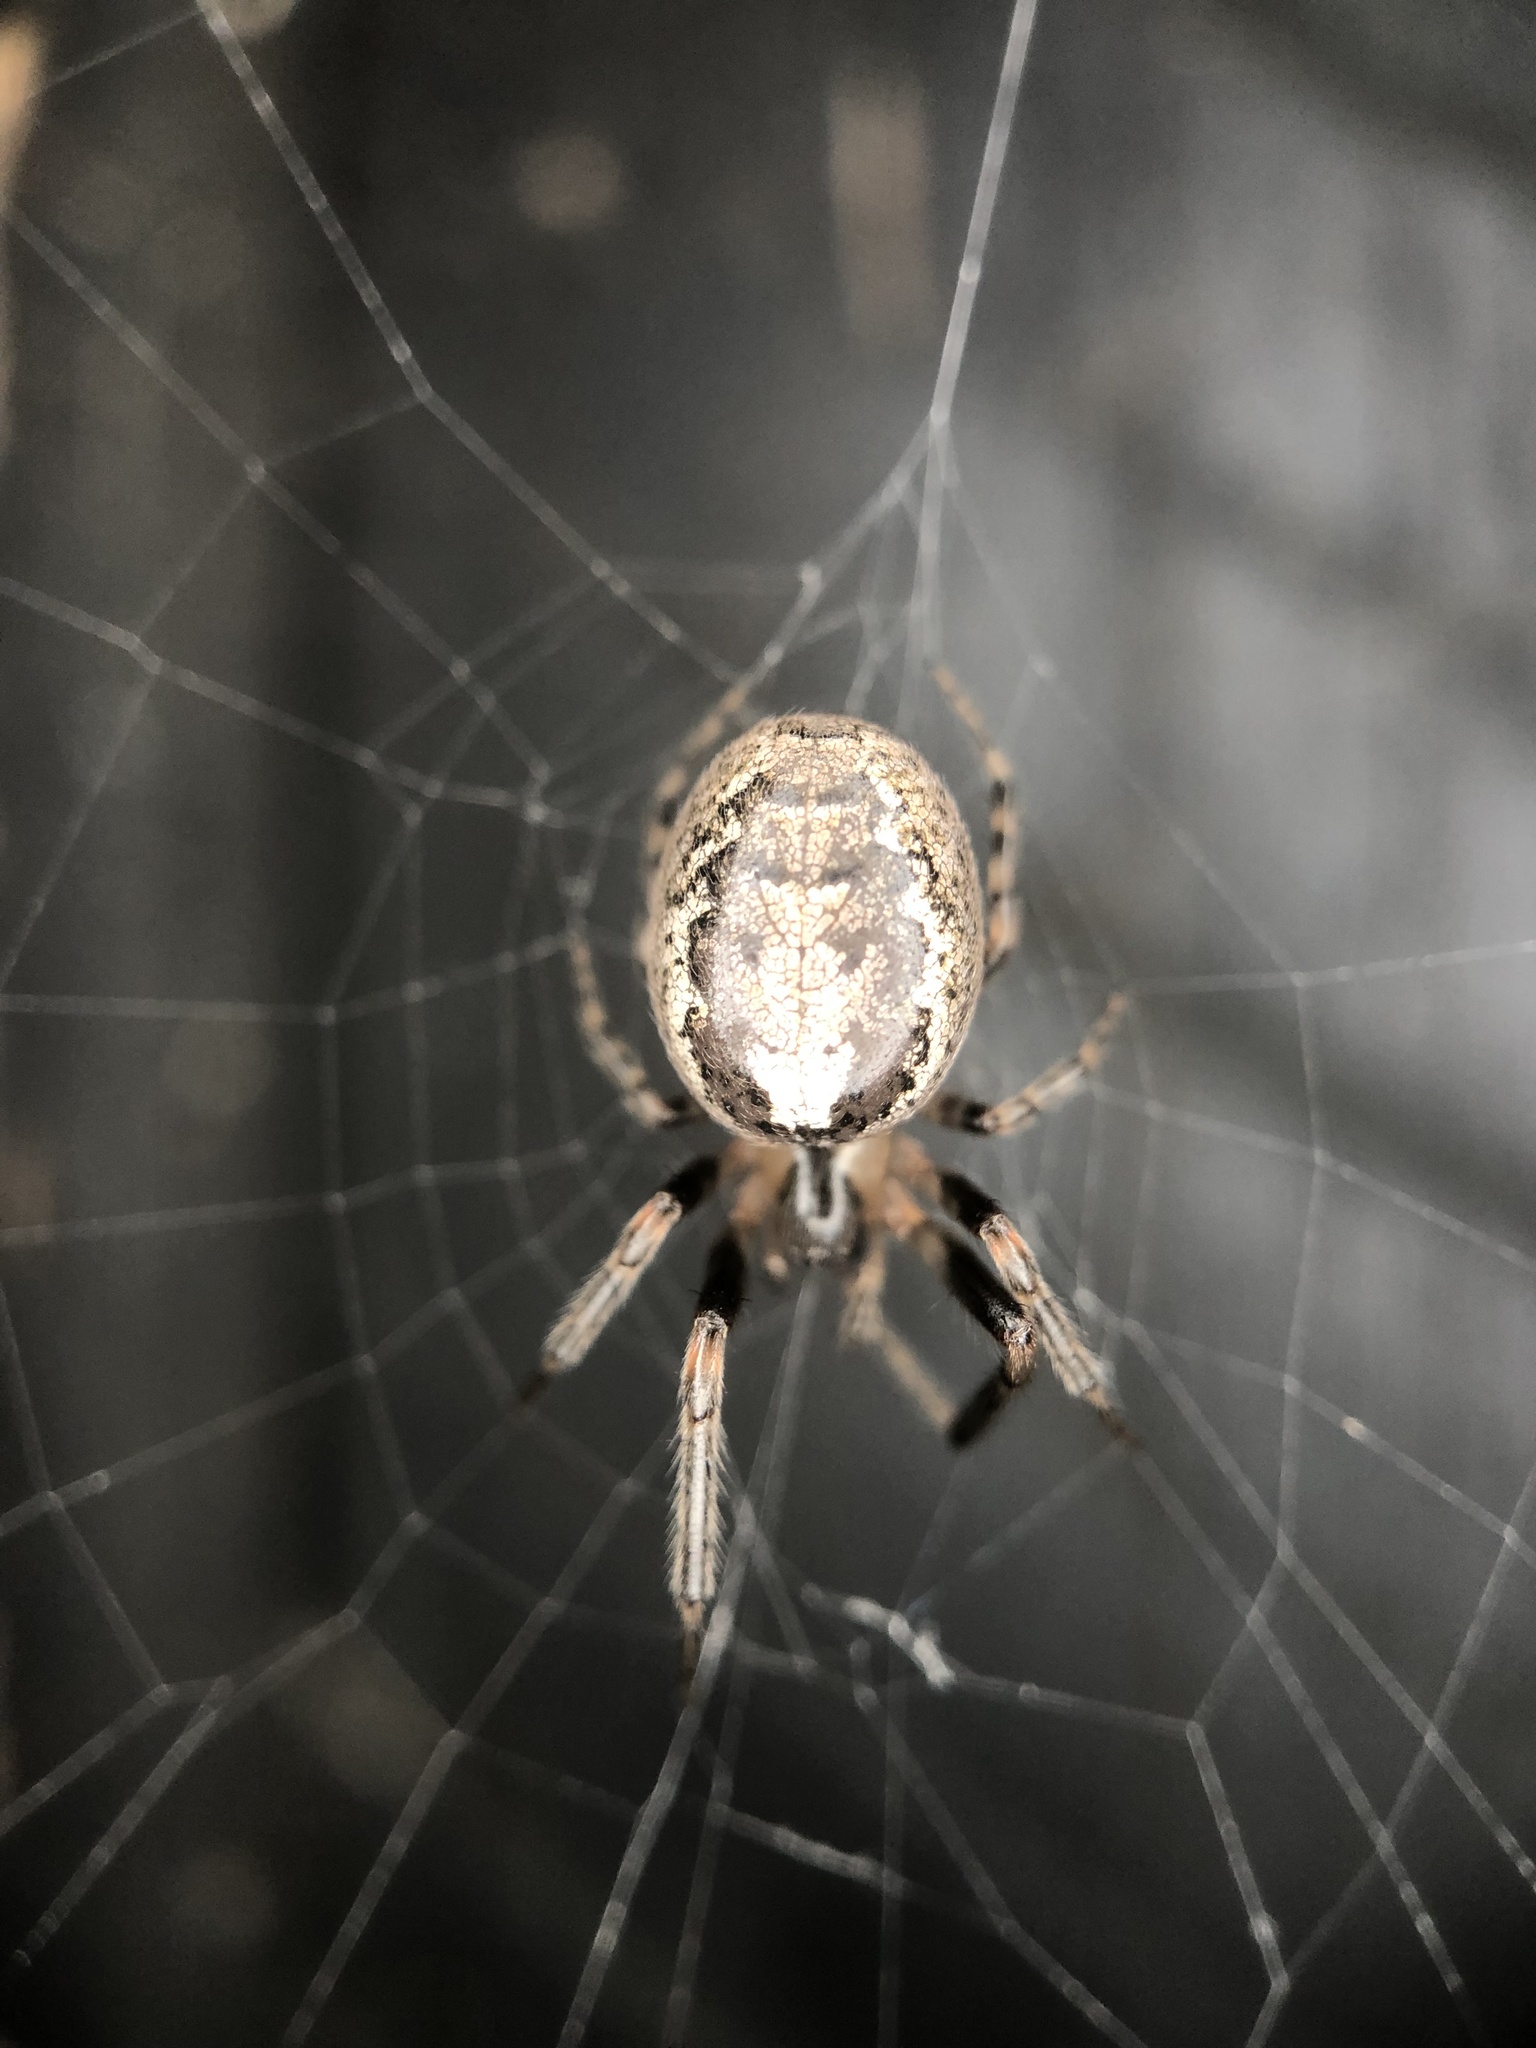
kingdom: Animalia
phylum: Arthropoda
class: Arachnida
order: Araneae
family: Araneidae
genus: Zygiella
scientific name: Zygiella x-notata
